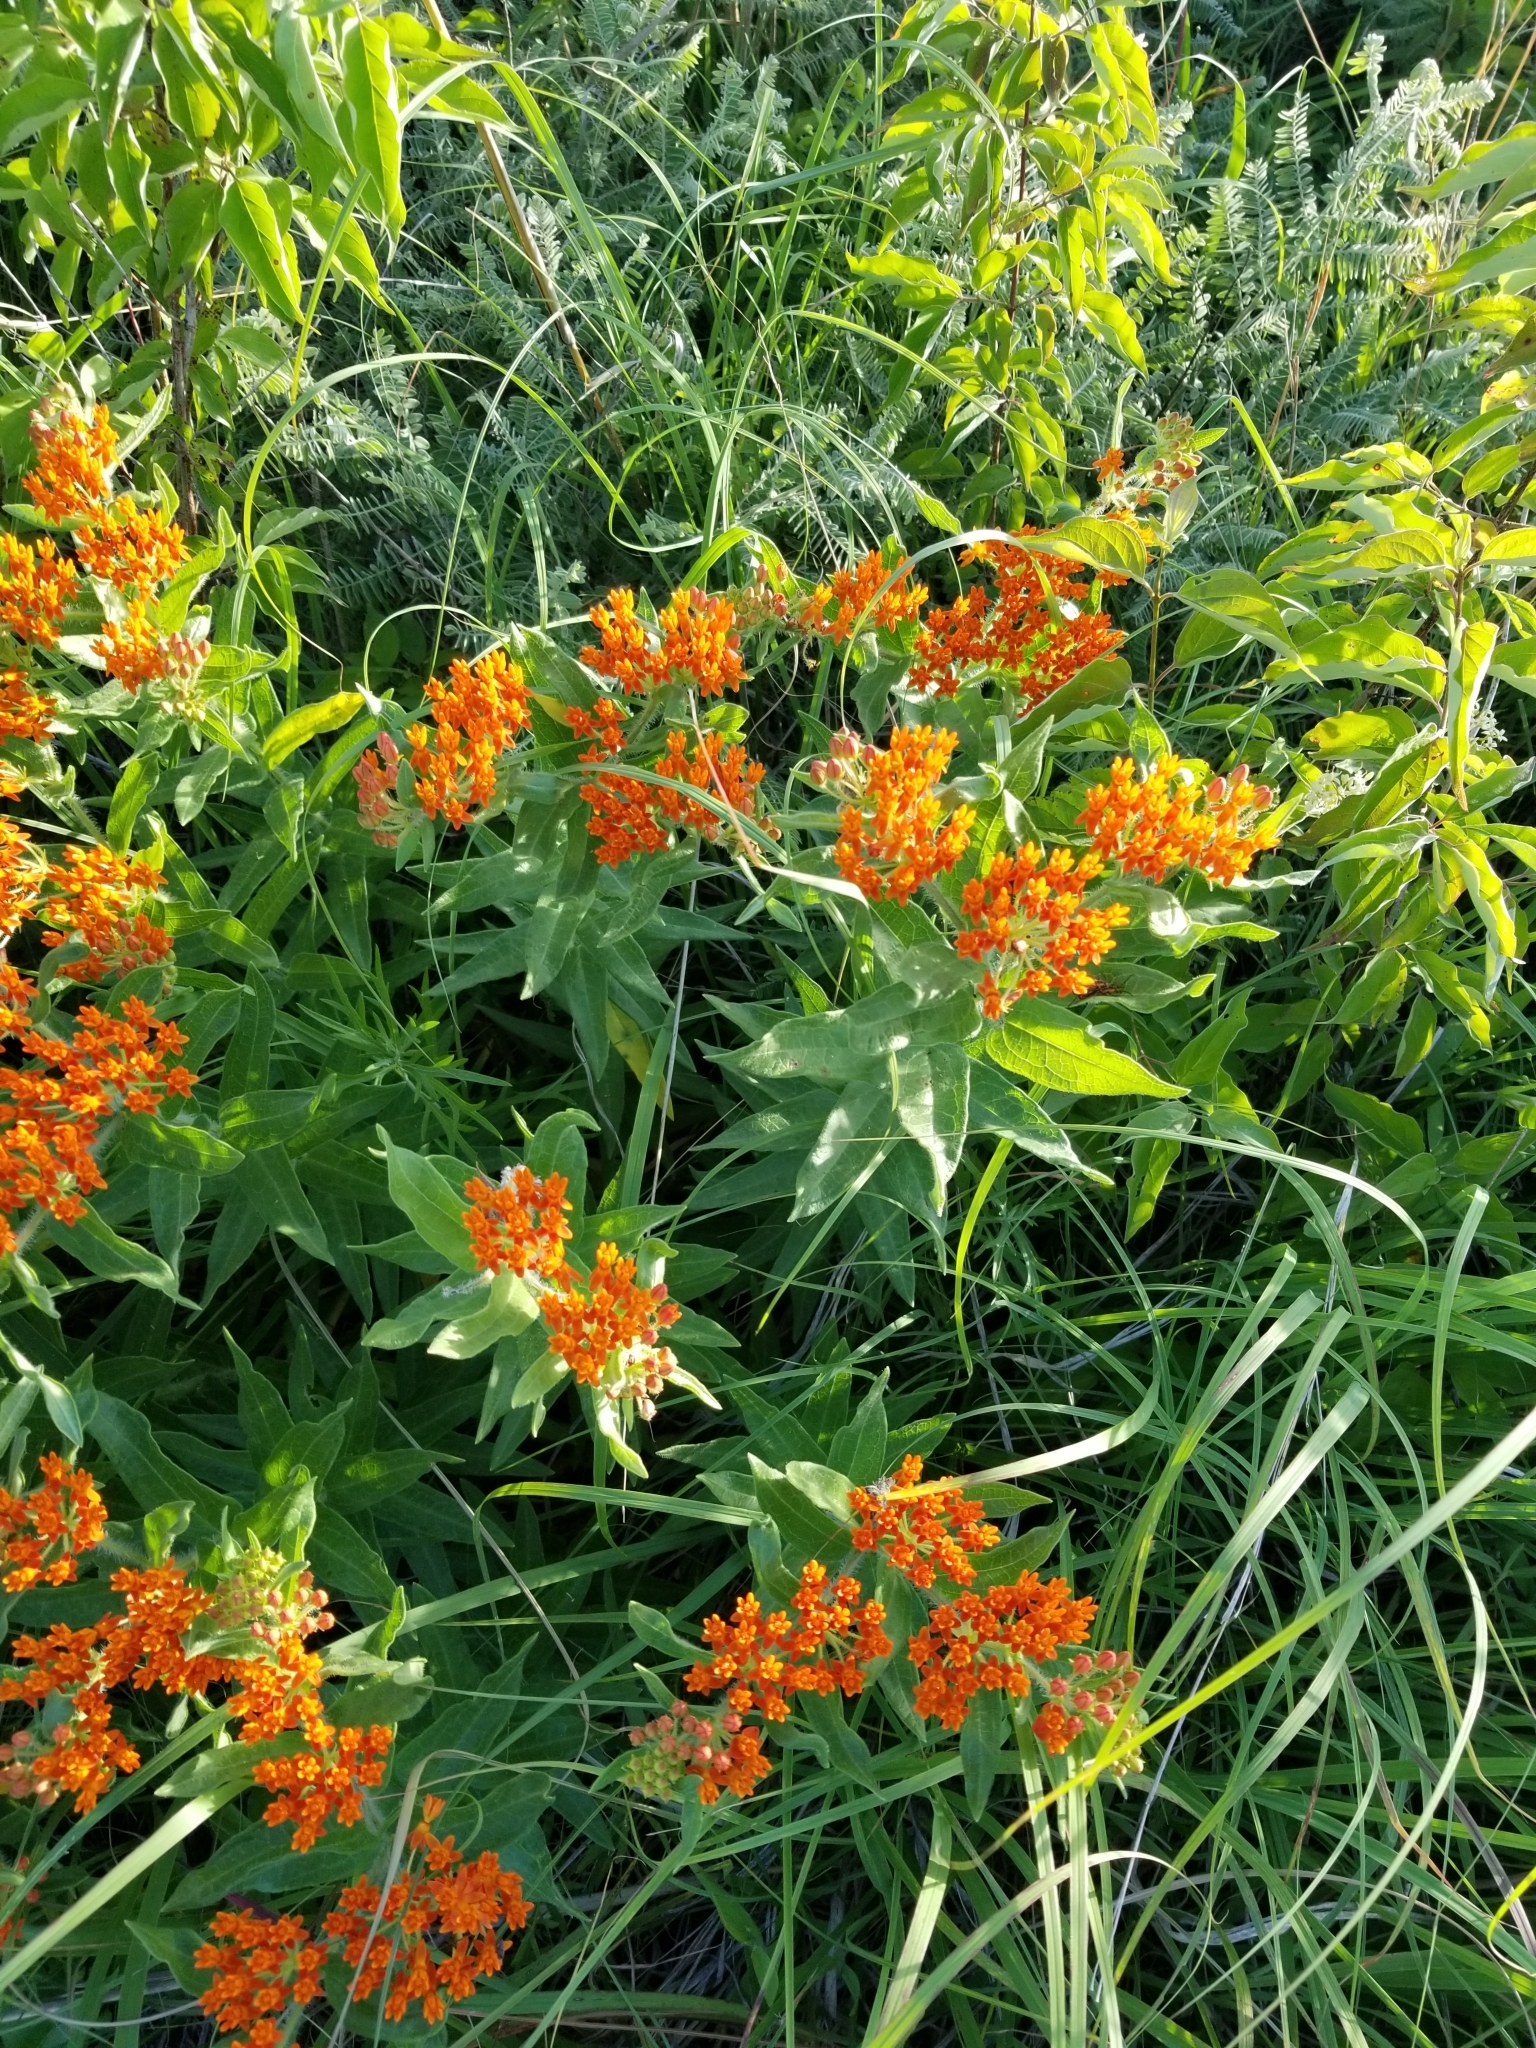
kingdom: Plantae
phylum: Tracheophyta
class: Magnoliopsida
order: Gentianales
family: Apocynaceae
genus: Asclepias
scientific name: Asclepias tuberosa
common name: Butterfly milkweed
